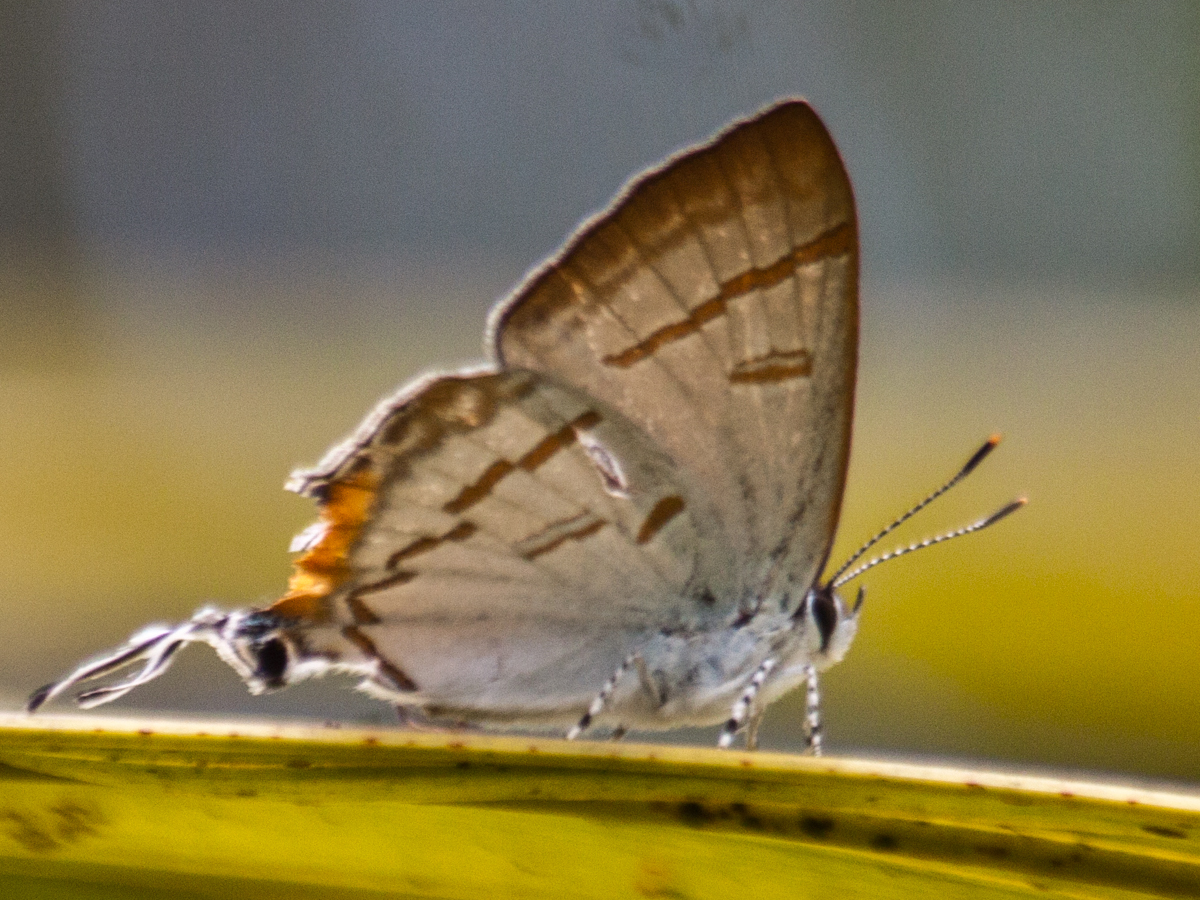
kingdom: Animalia
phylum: Arthropoda
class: Insecta
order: Lepidoptera
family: Lycaenidae
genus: Hypolycaena
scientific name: Hypolycaena thecloides
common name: Dark tit
